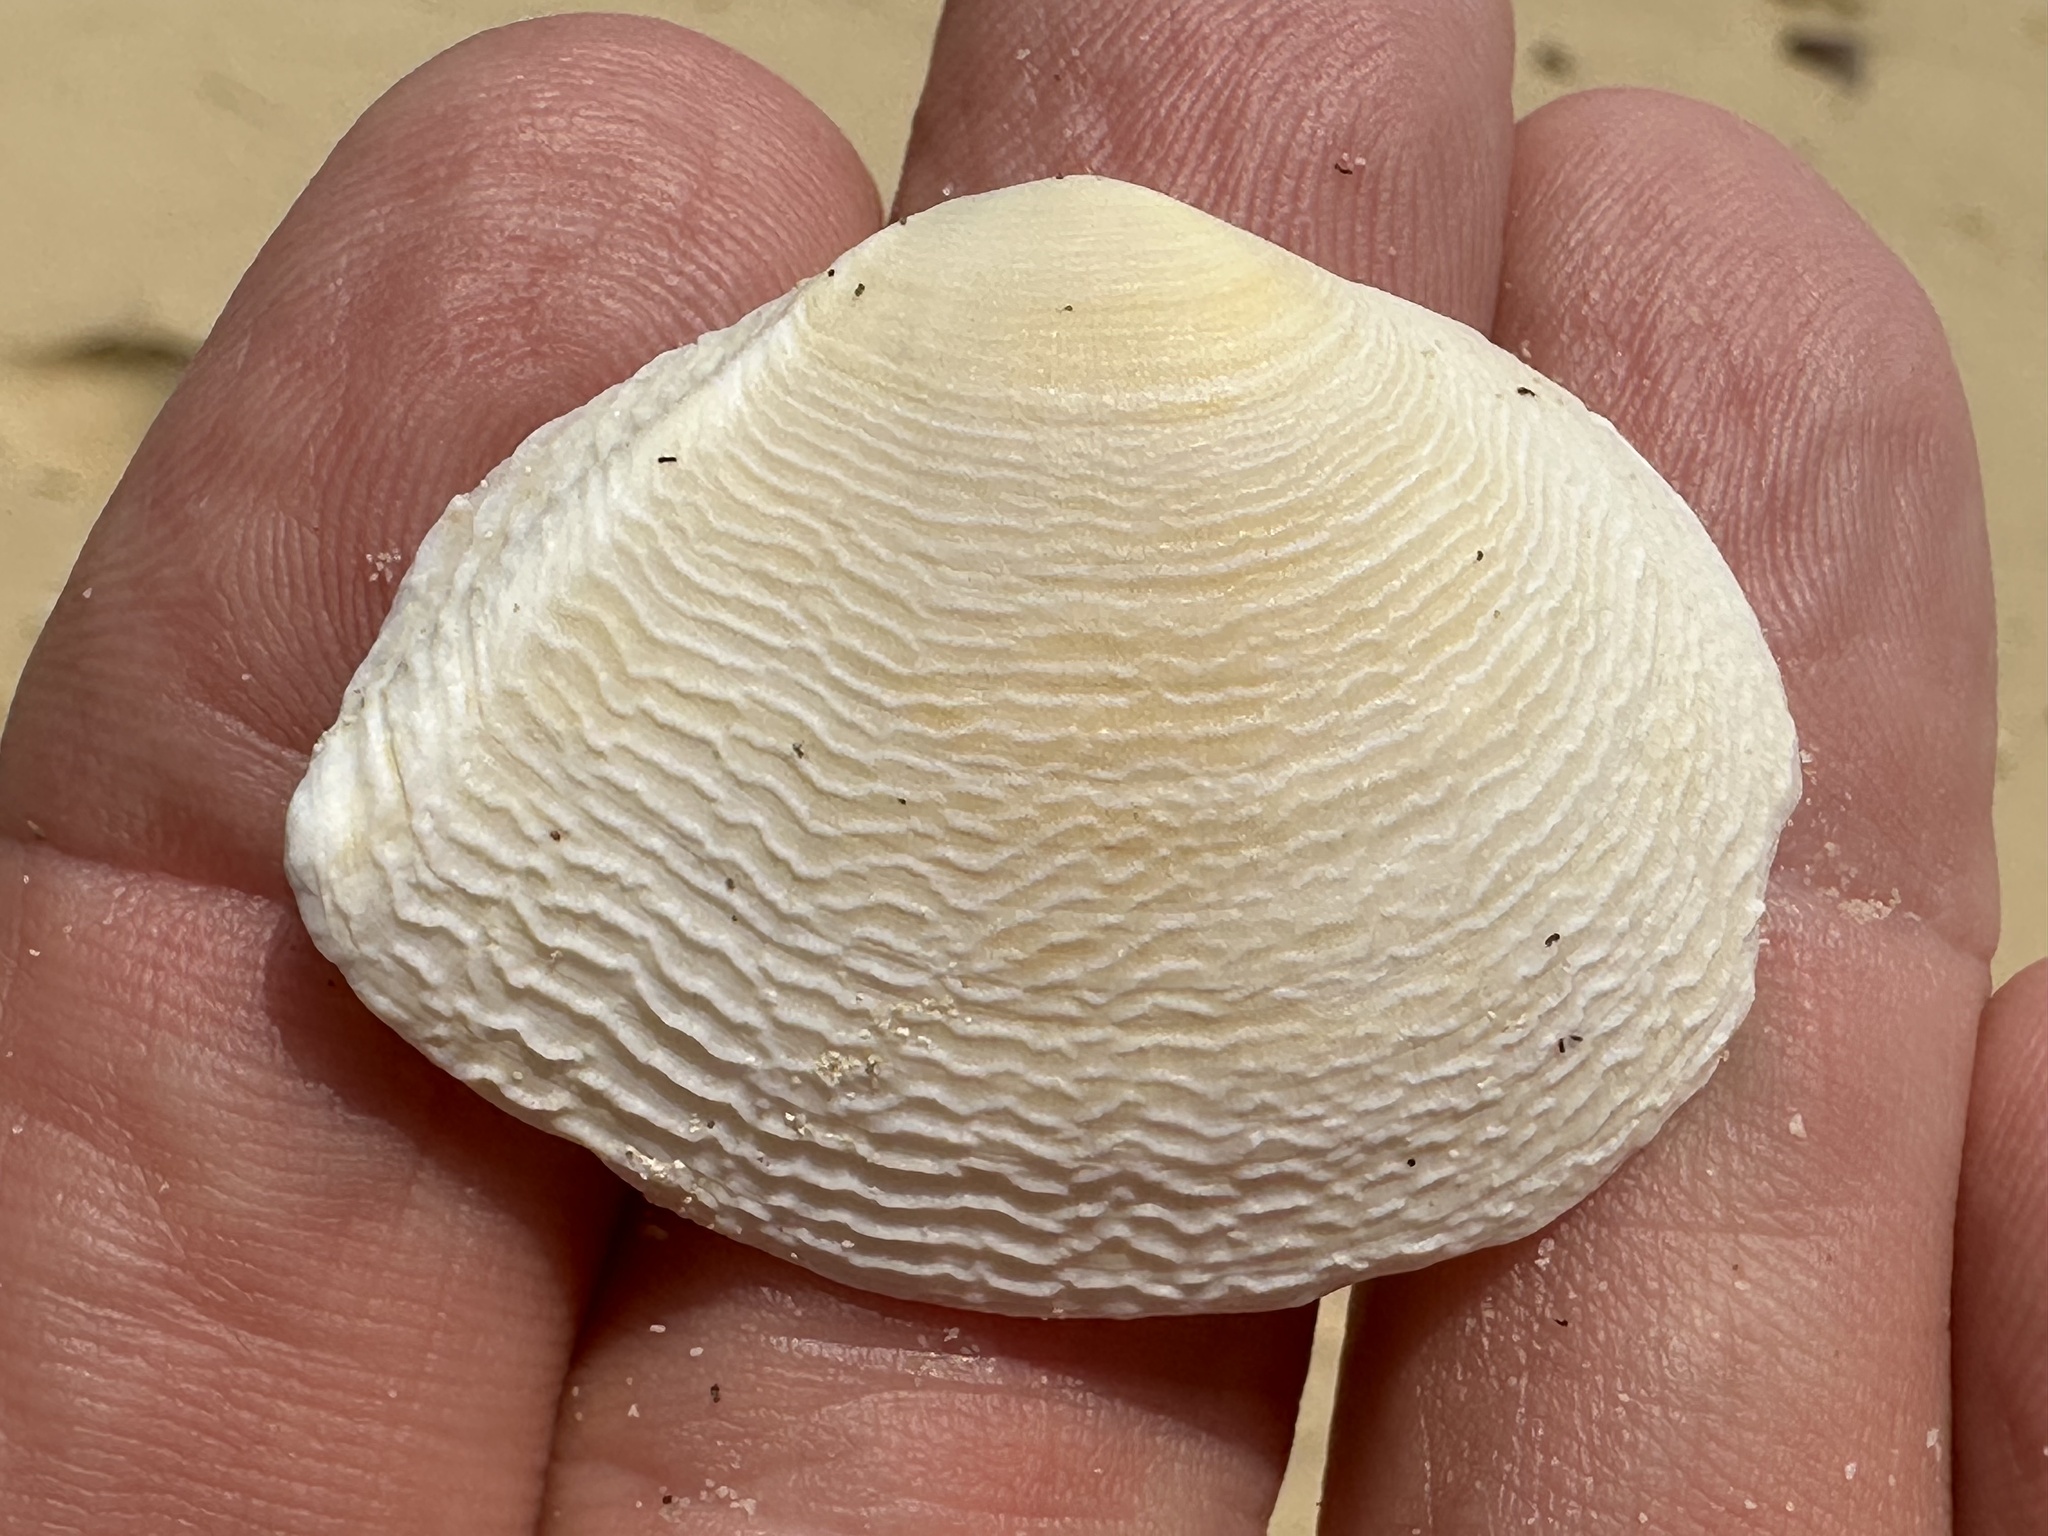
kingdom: Animalia
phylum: Mollusca
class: Bivalvia
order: Cardiida
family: Tellinidae
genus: Quidnipagus
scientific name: Quidnipagus palatam
